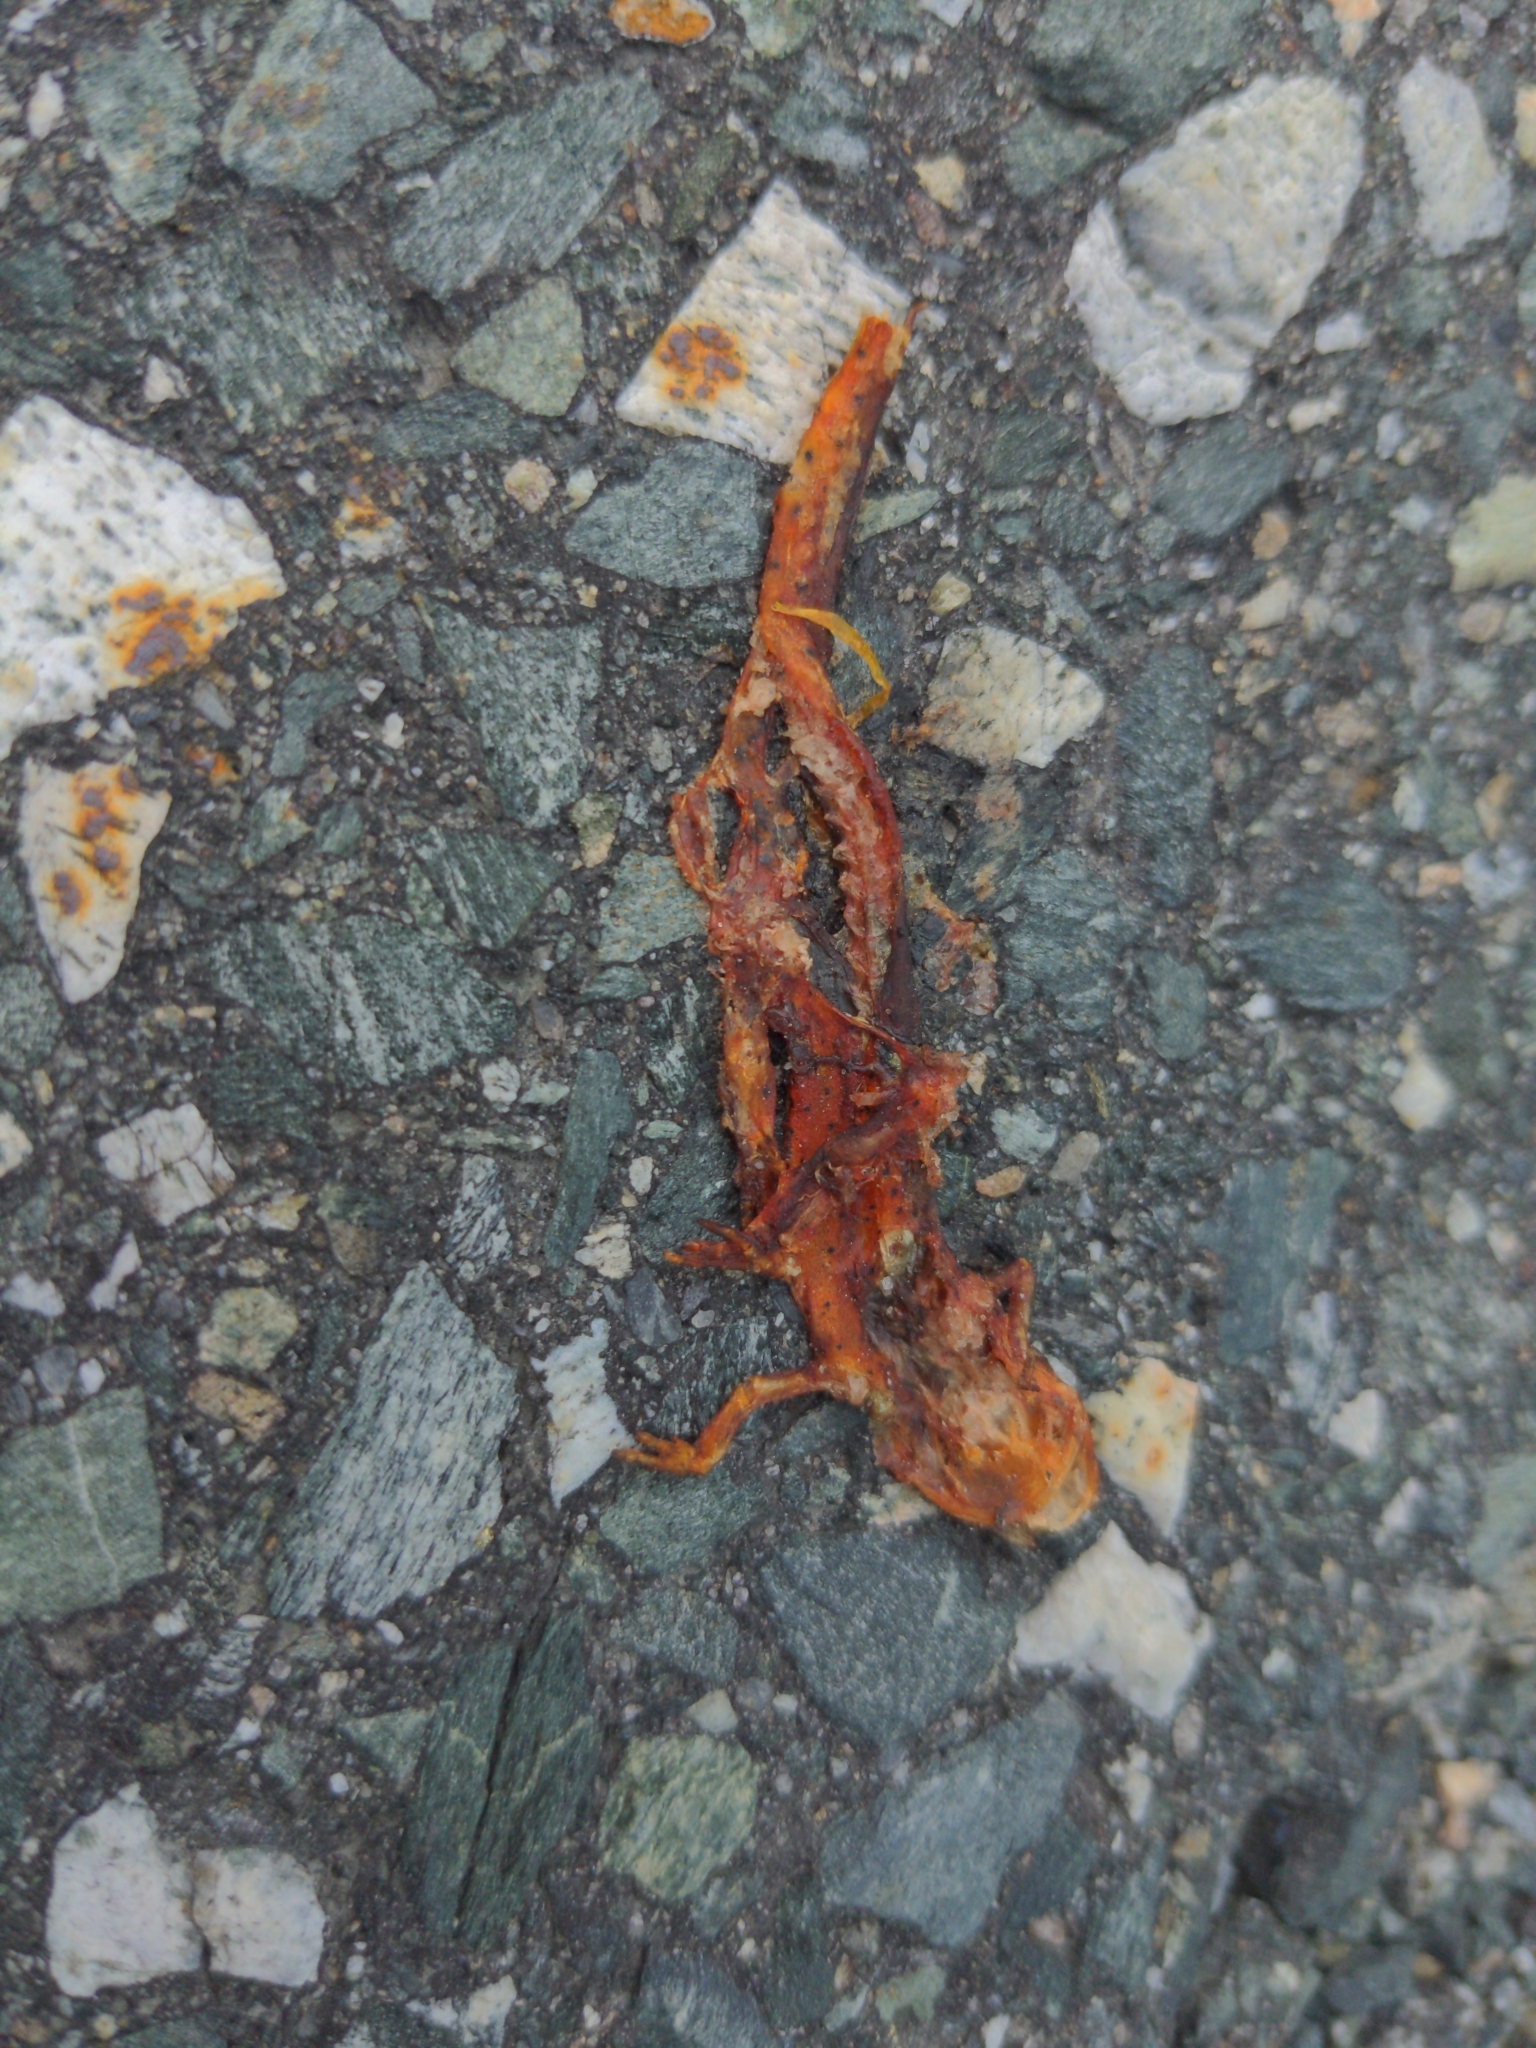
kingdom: Animalia
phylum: Chordata
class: Amphibia
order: Caudata
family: Salamandridae
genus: Notophthalmus
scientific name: Notophthalmus viridescens
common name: Eastern newt
